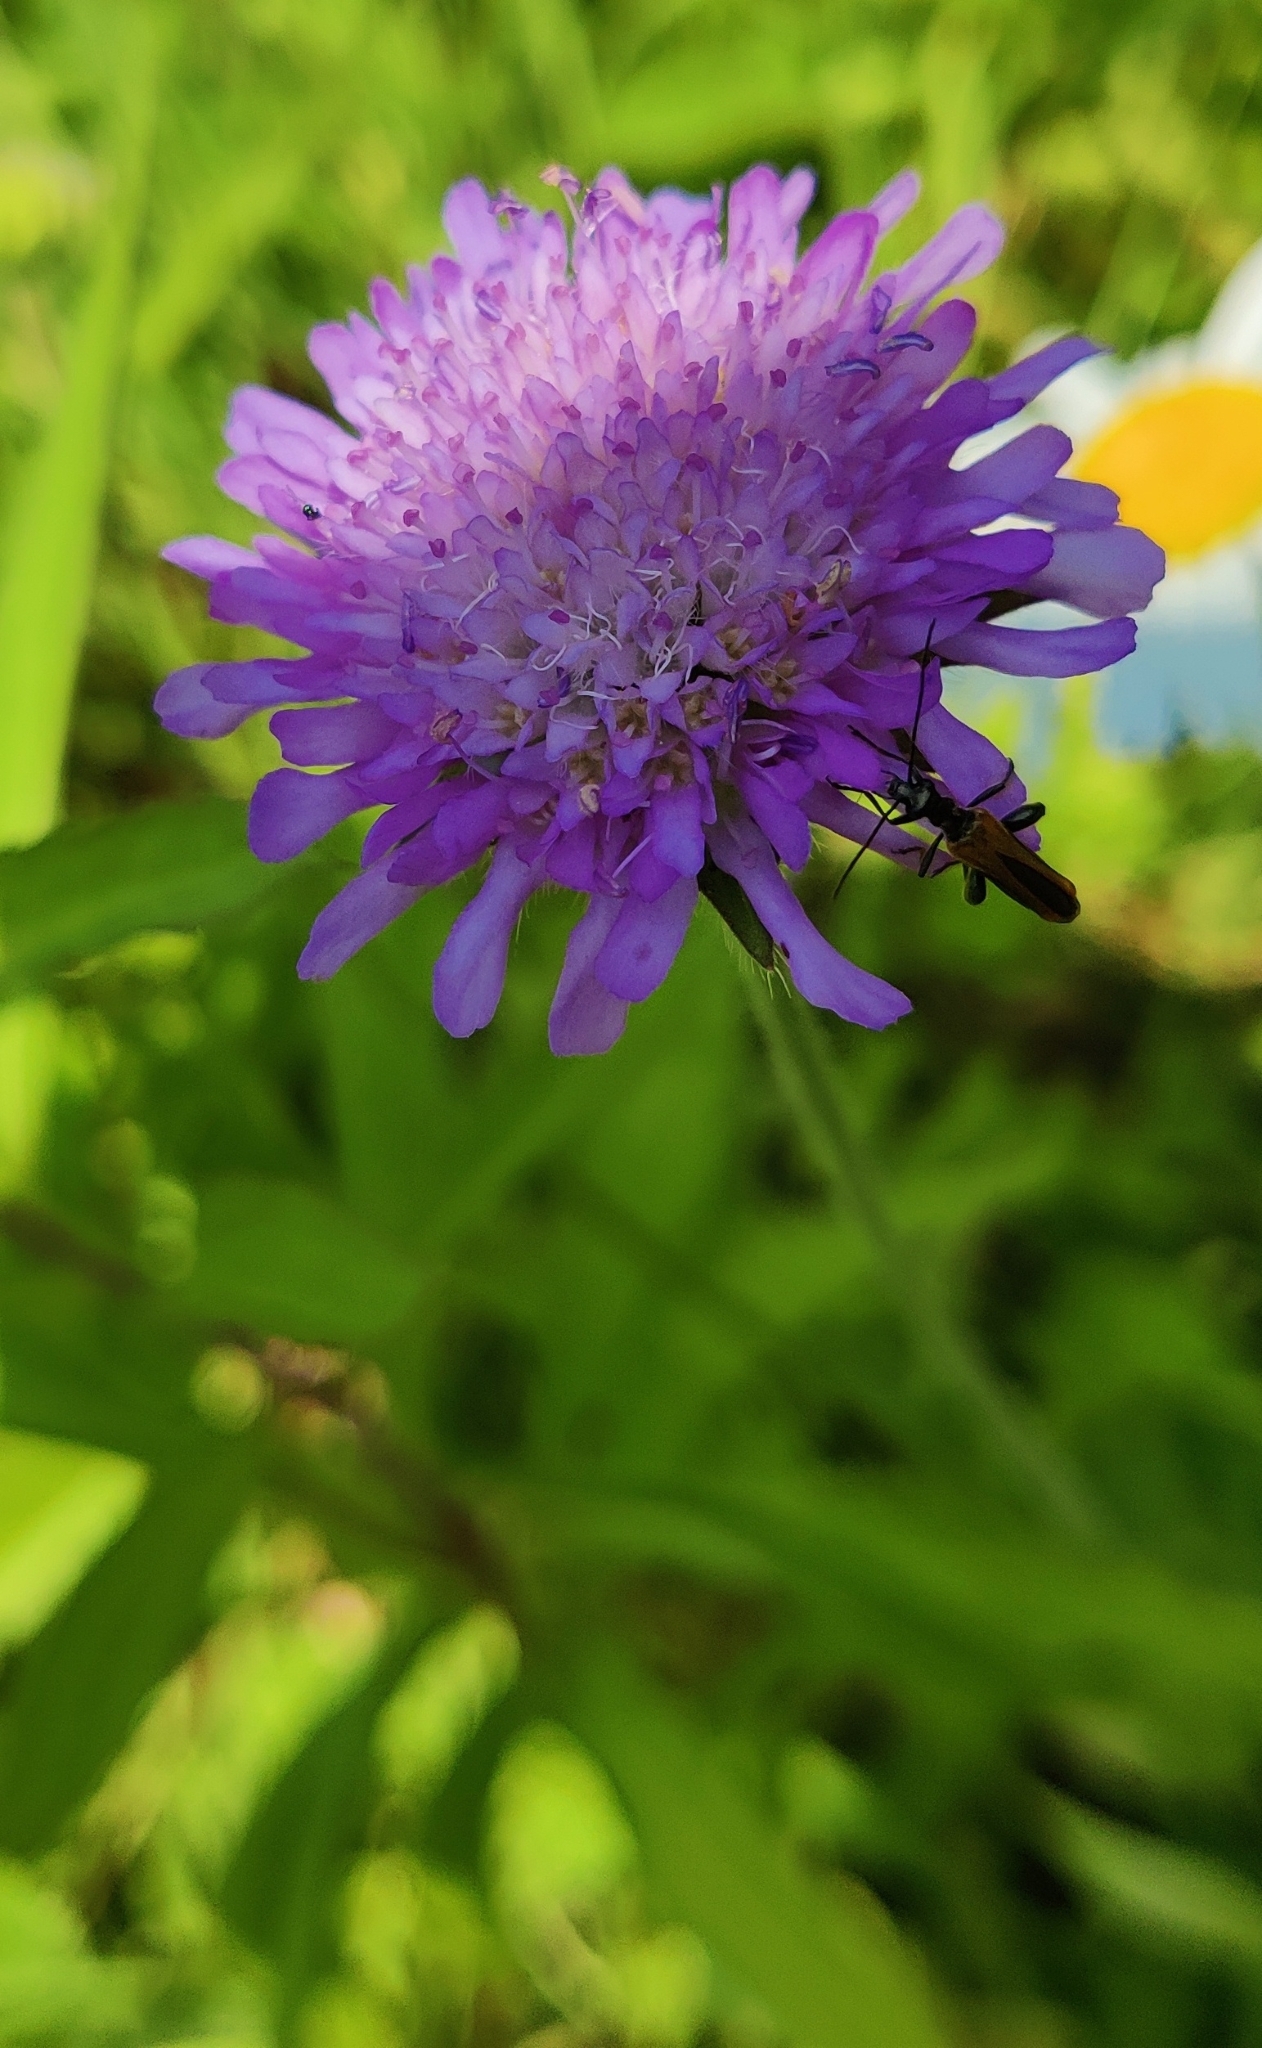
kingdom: Plantae
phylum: Tracheophyta
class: Magnoliopsida
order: Dipsacales
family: Caprifoliaceae
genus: Knautia
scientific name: Knautia arvensis
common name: Field scabiosa
